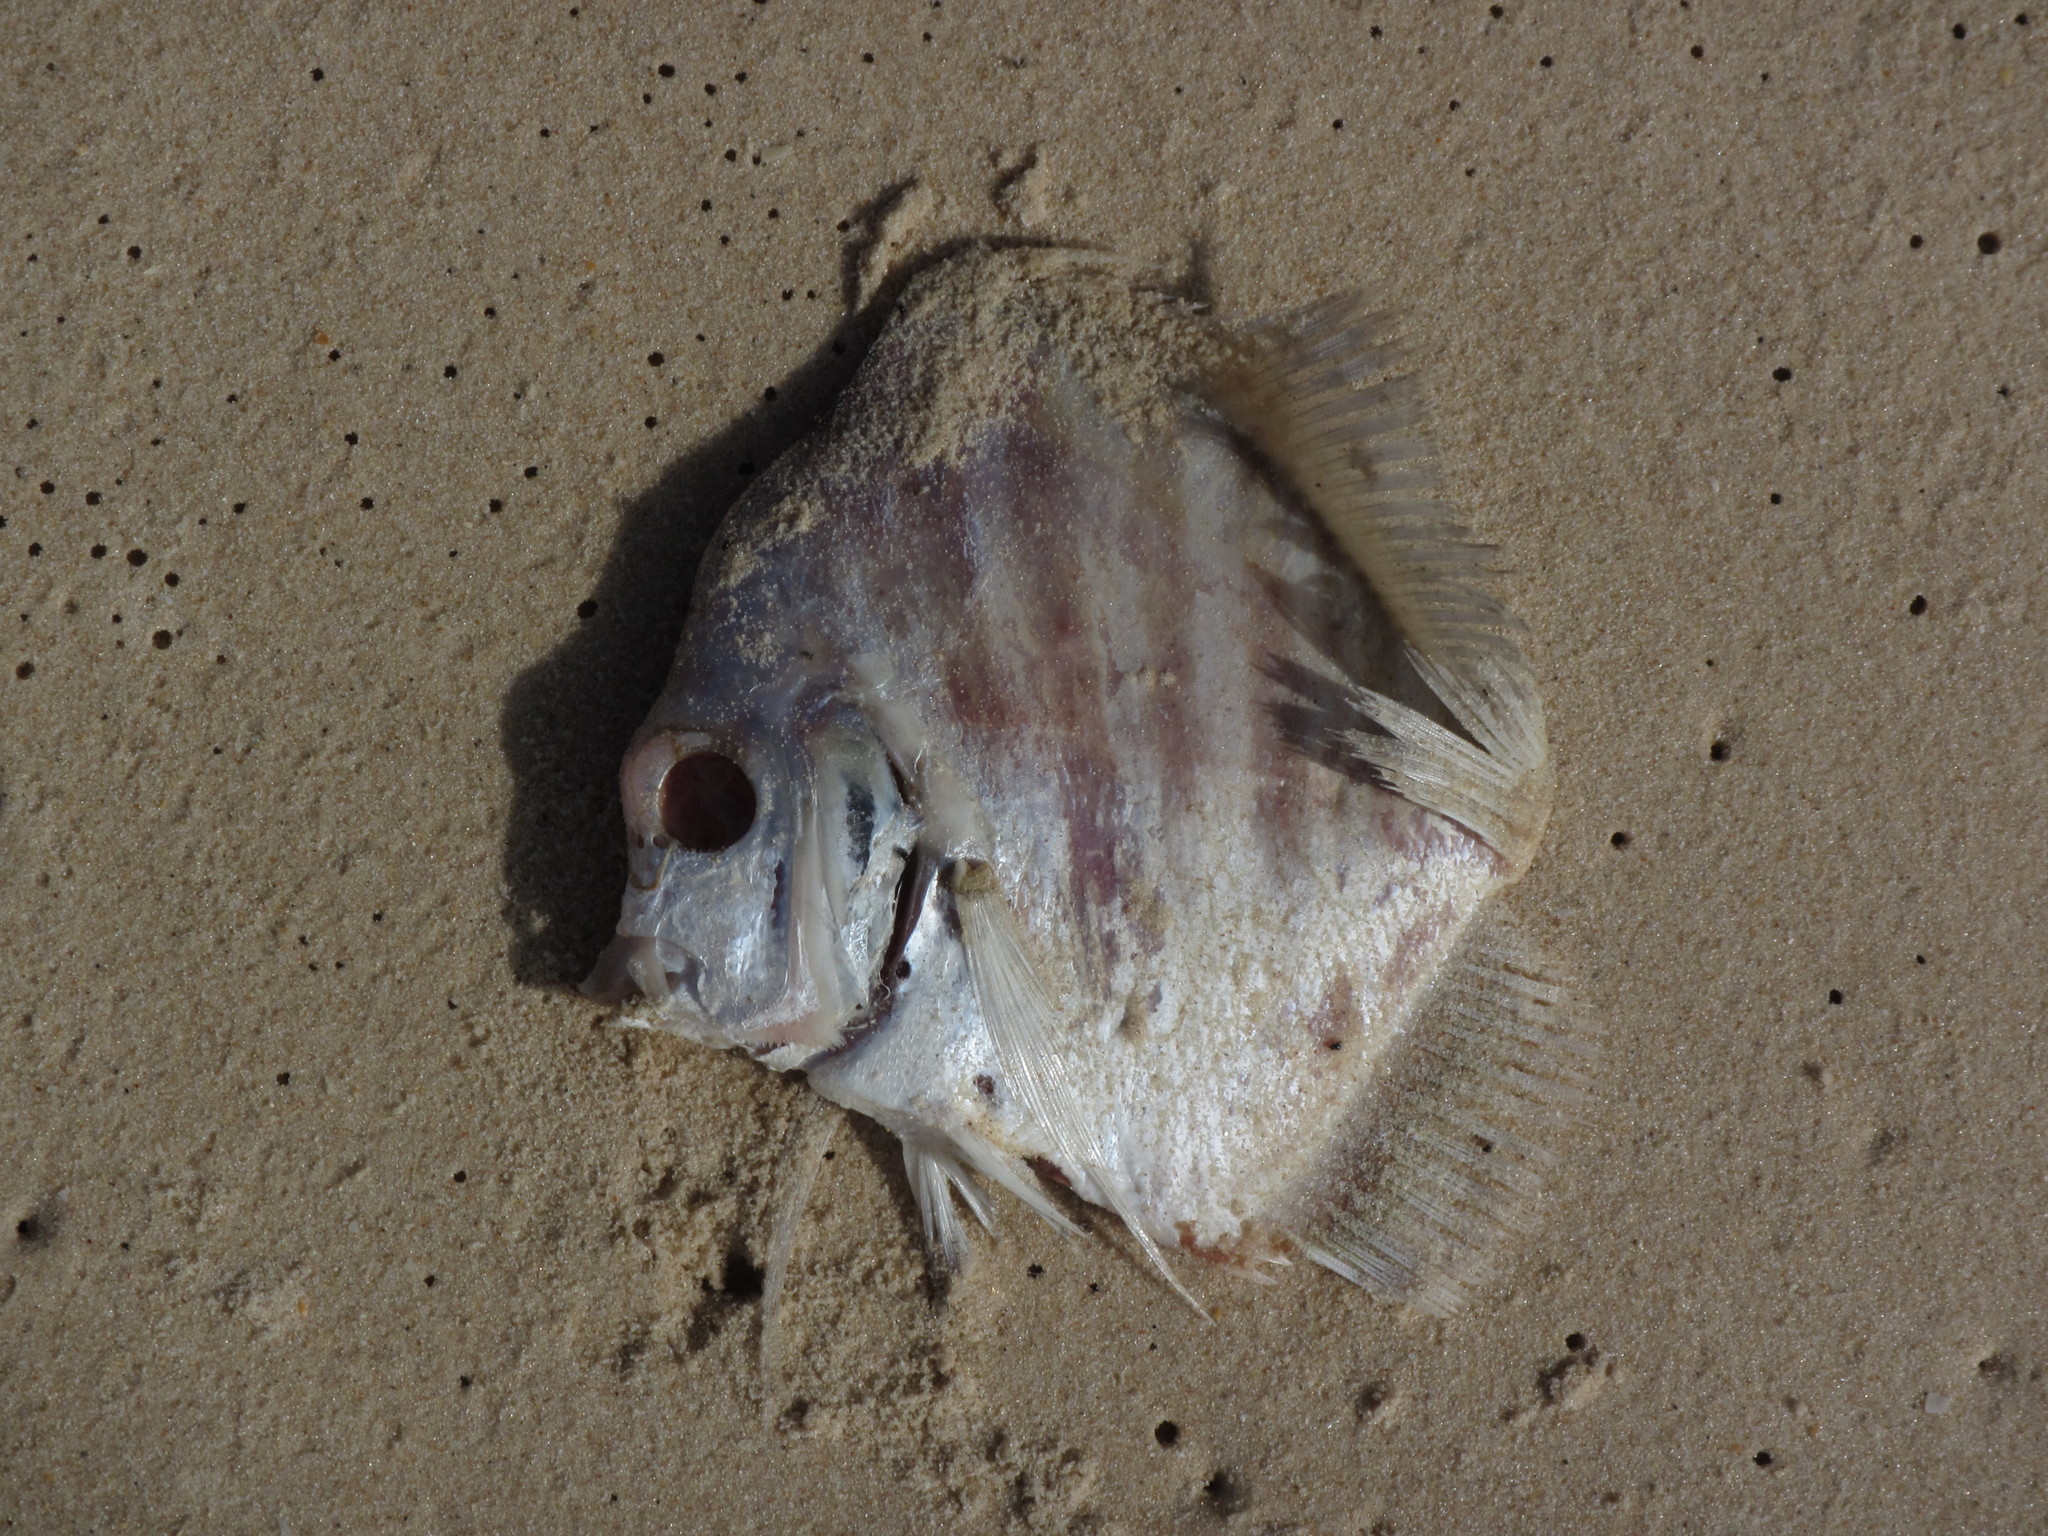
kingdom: Animalia
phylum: Chordata
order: Perciformes
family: Drepaneidae
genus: Drepane
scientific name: Drepane africana
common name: African sicklefish
